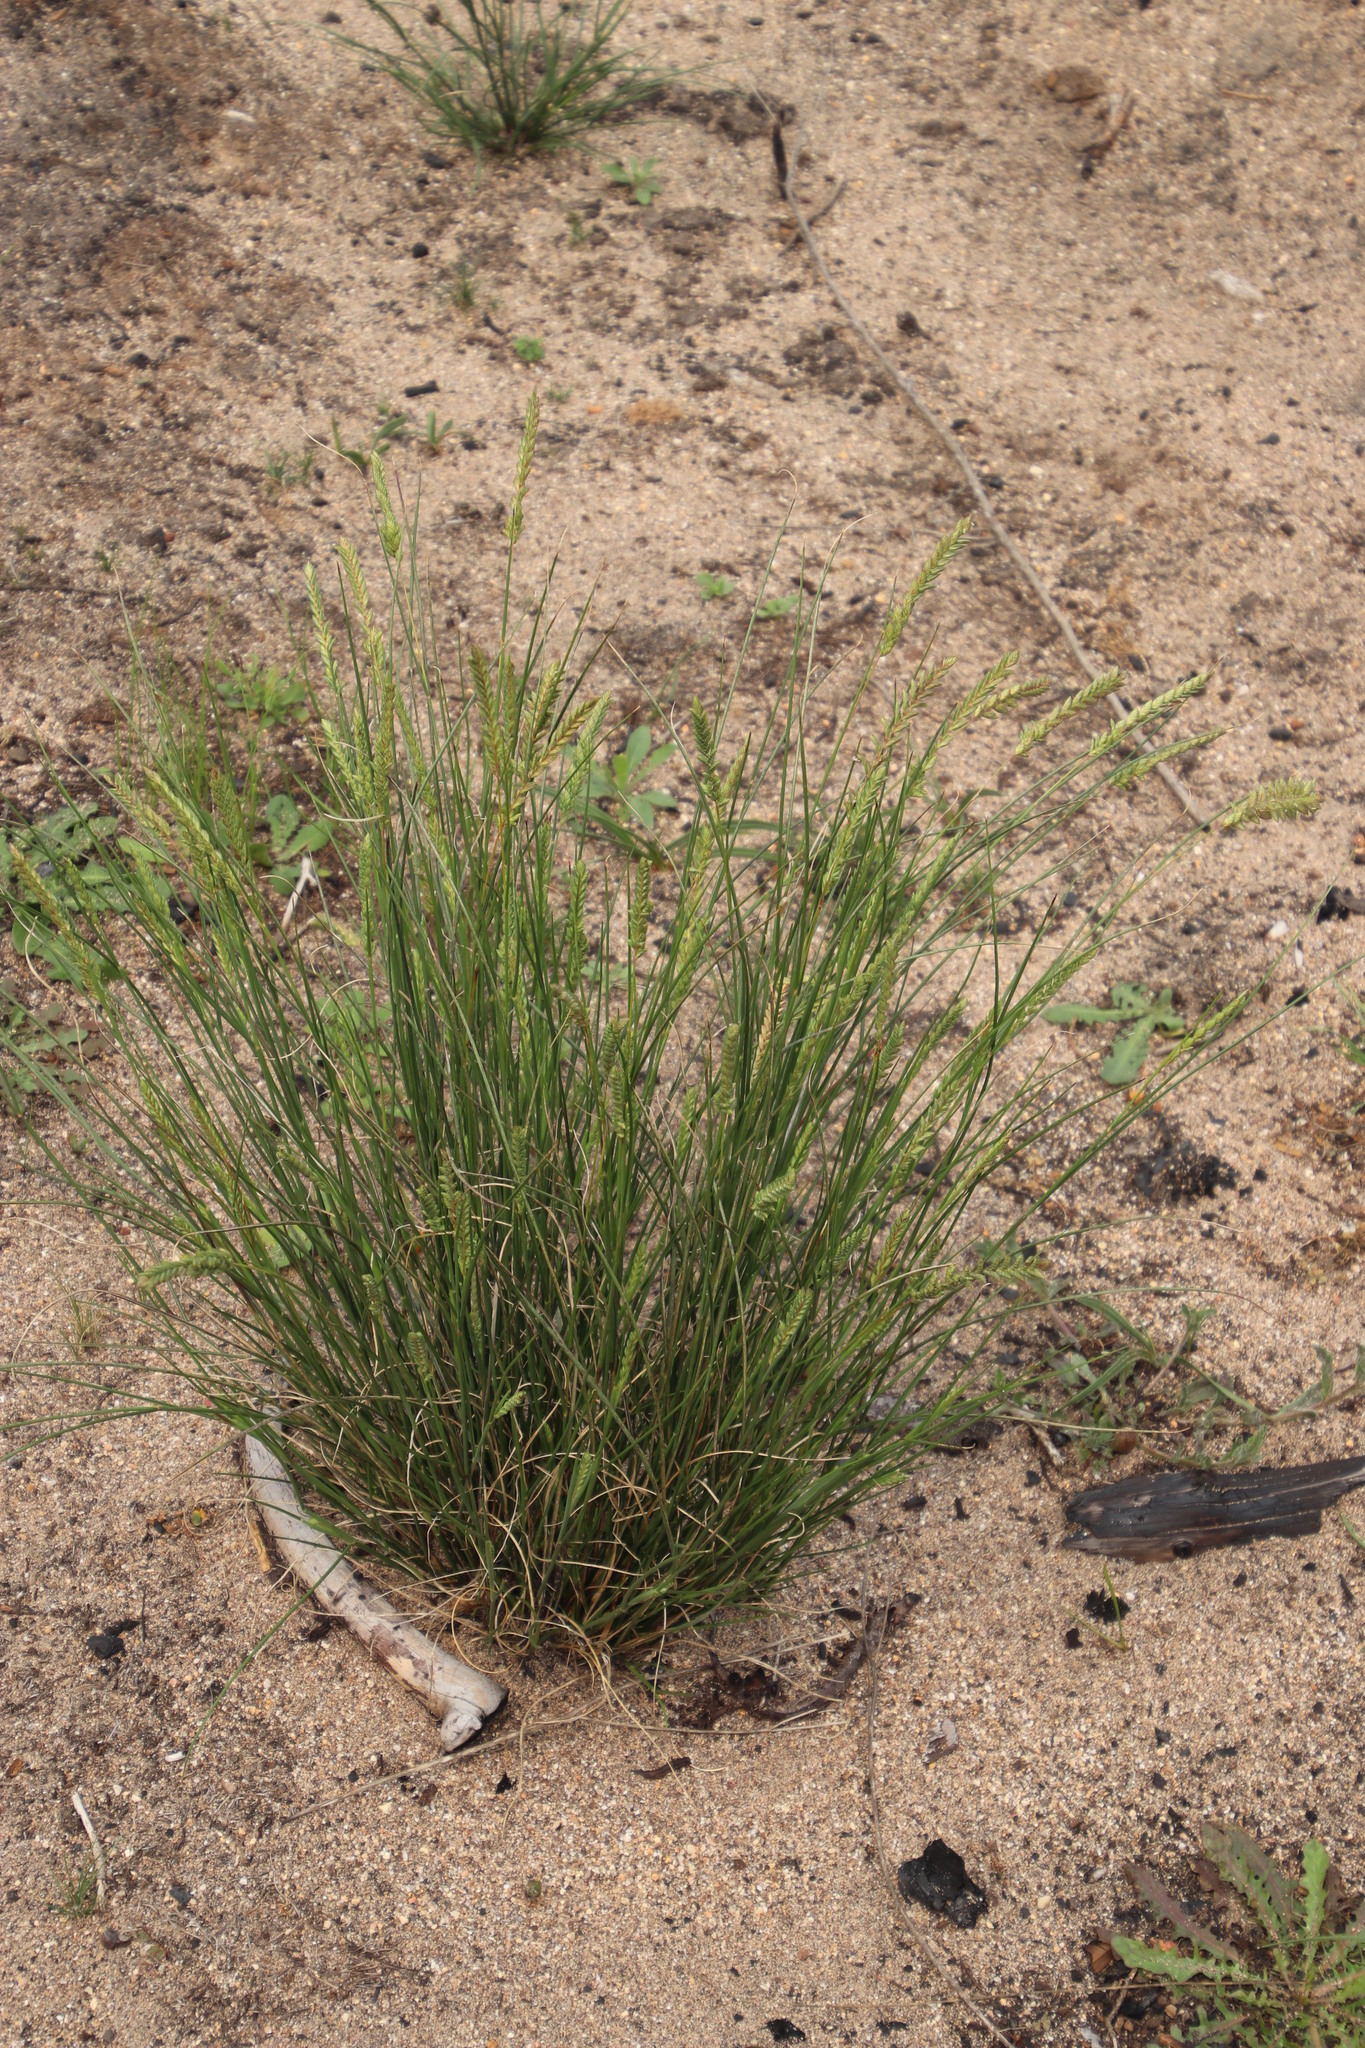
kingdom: Plantae
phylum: Tracheophyta
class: Liliopsida
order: Poales
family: Poaceae
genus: Tribolium
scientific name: Tribolium uniolae
